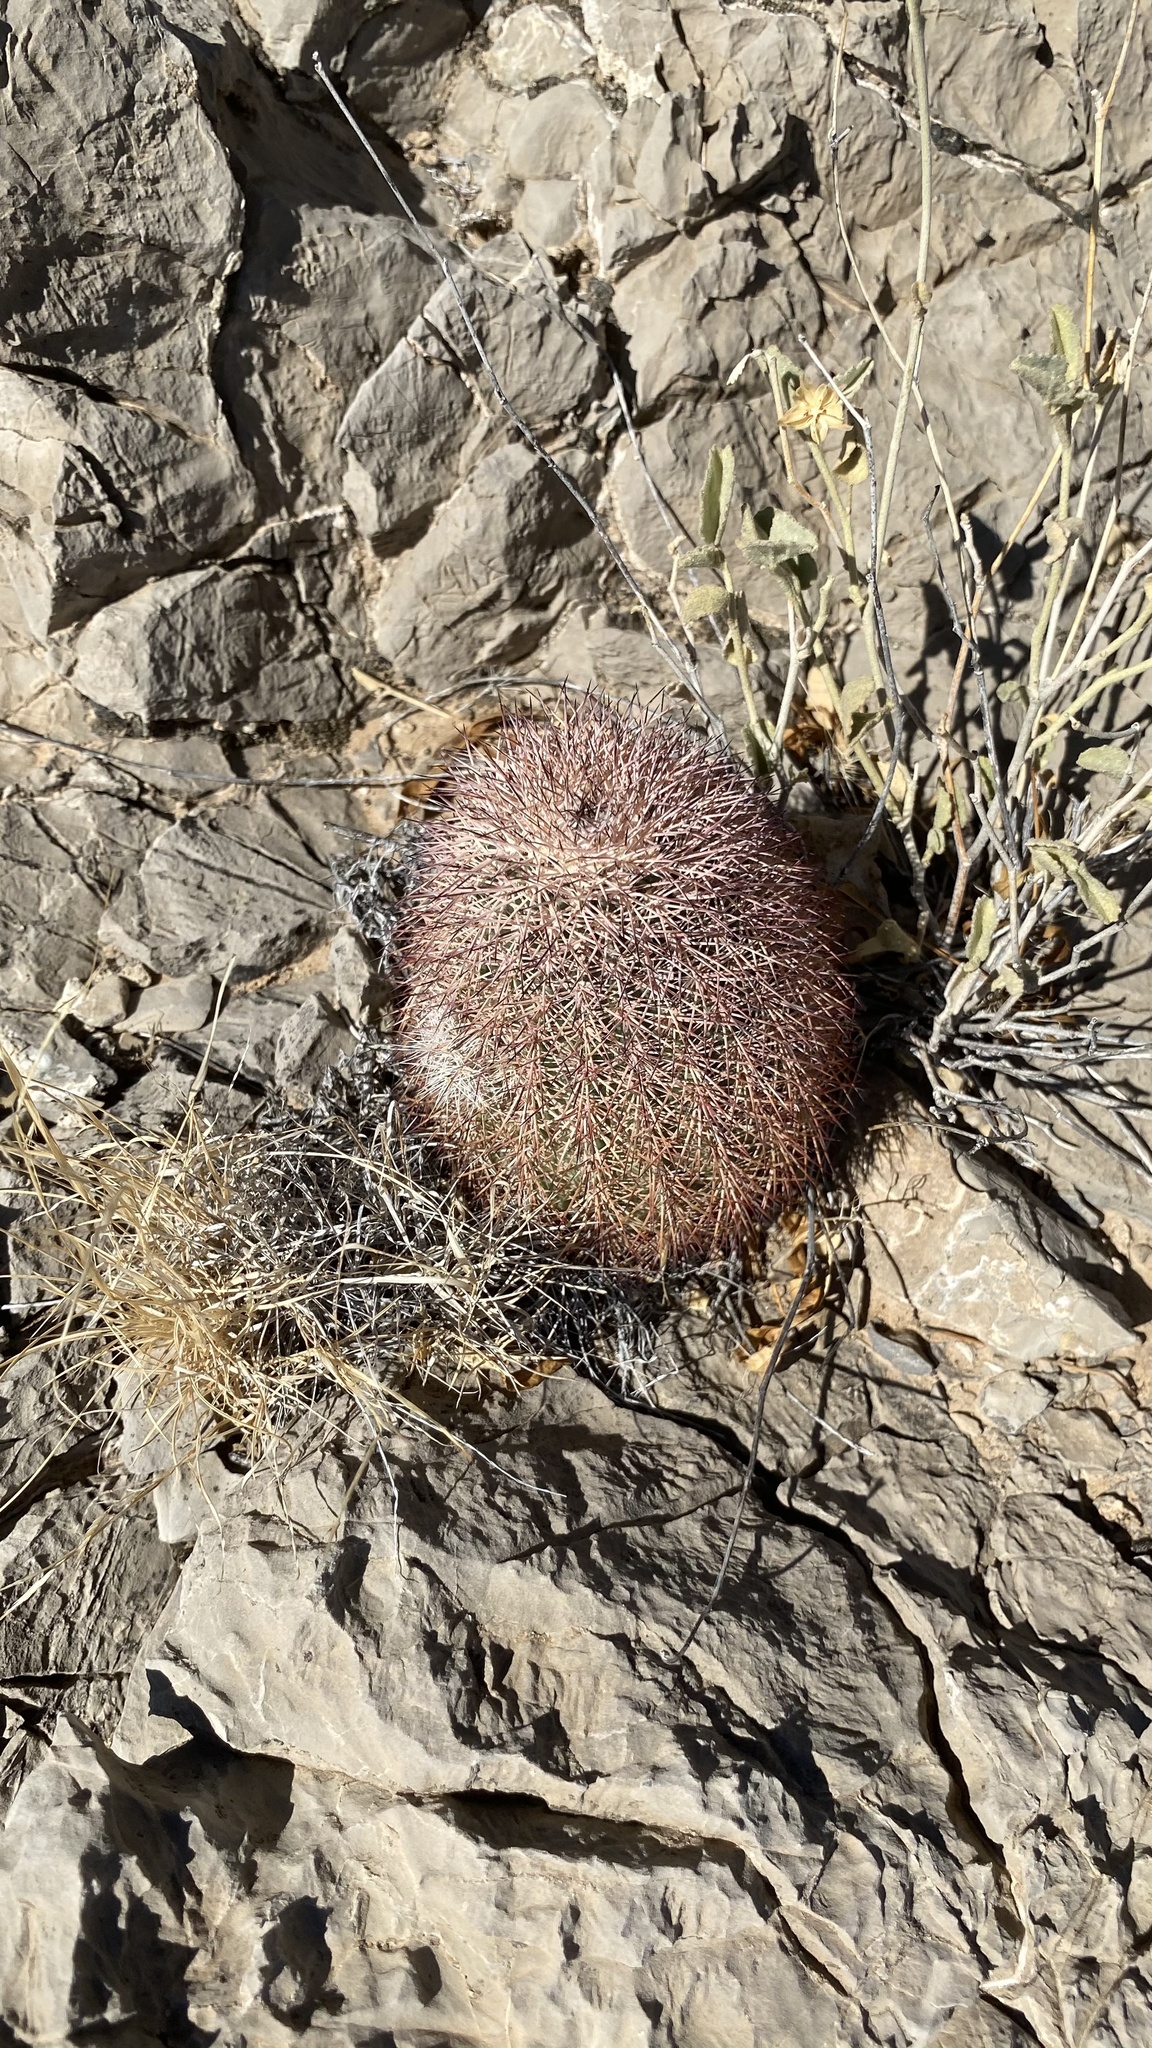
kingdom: Plantae
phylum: Tracheophyta
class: Magnoliopsida
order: Caryophyllales
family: Cactaceae
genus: Echinocereus
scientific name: Echinocereus dasyacanthus
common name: Spiny hedgehog cactus
